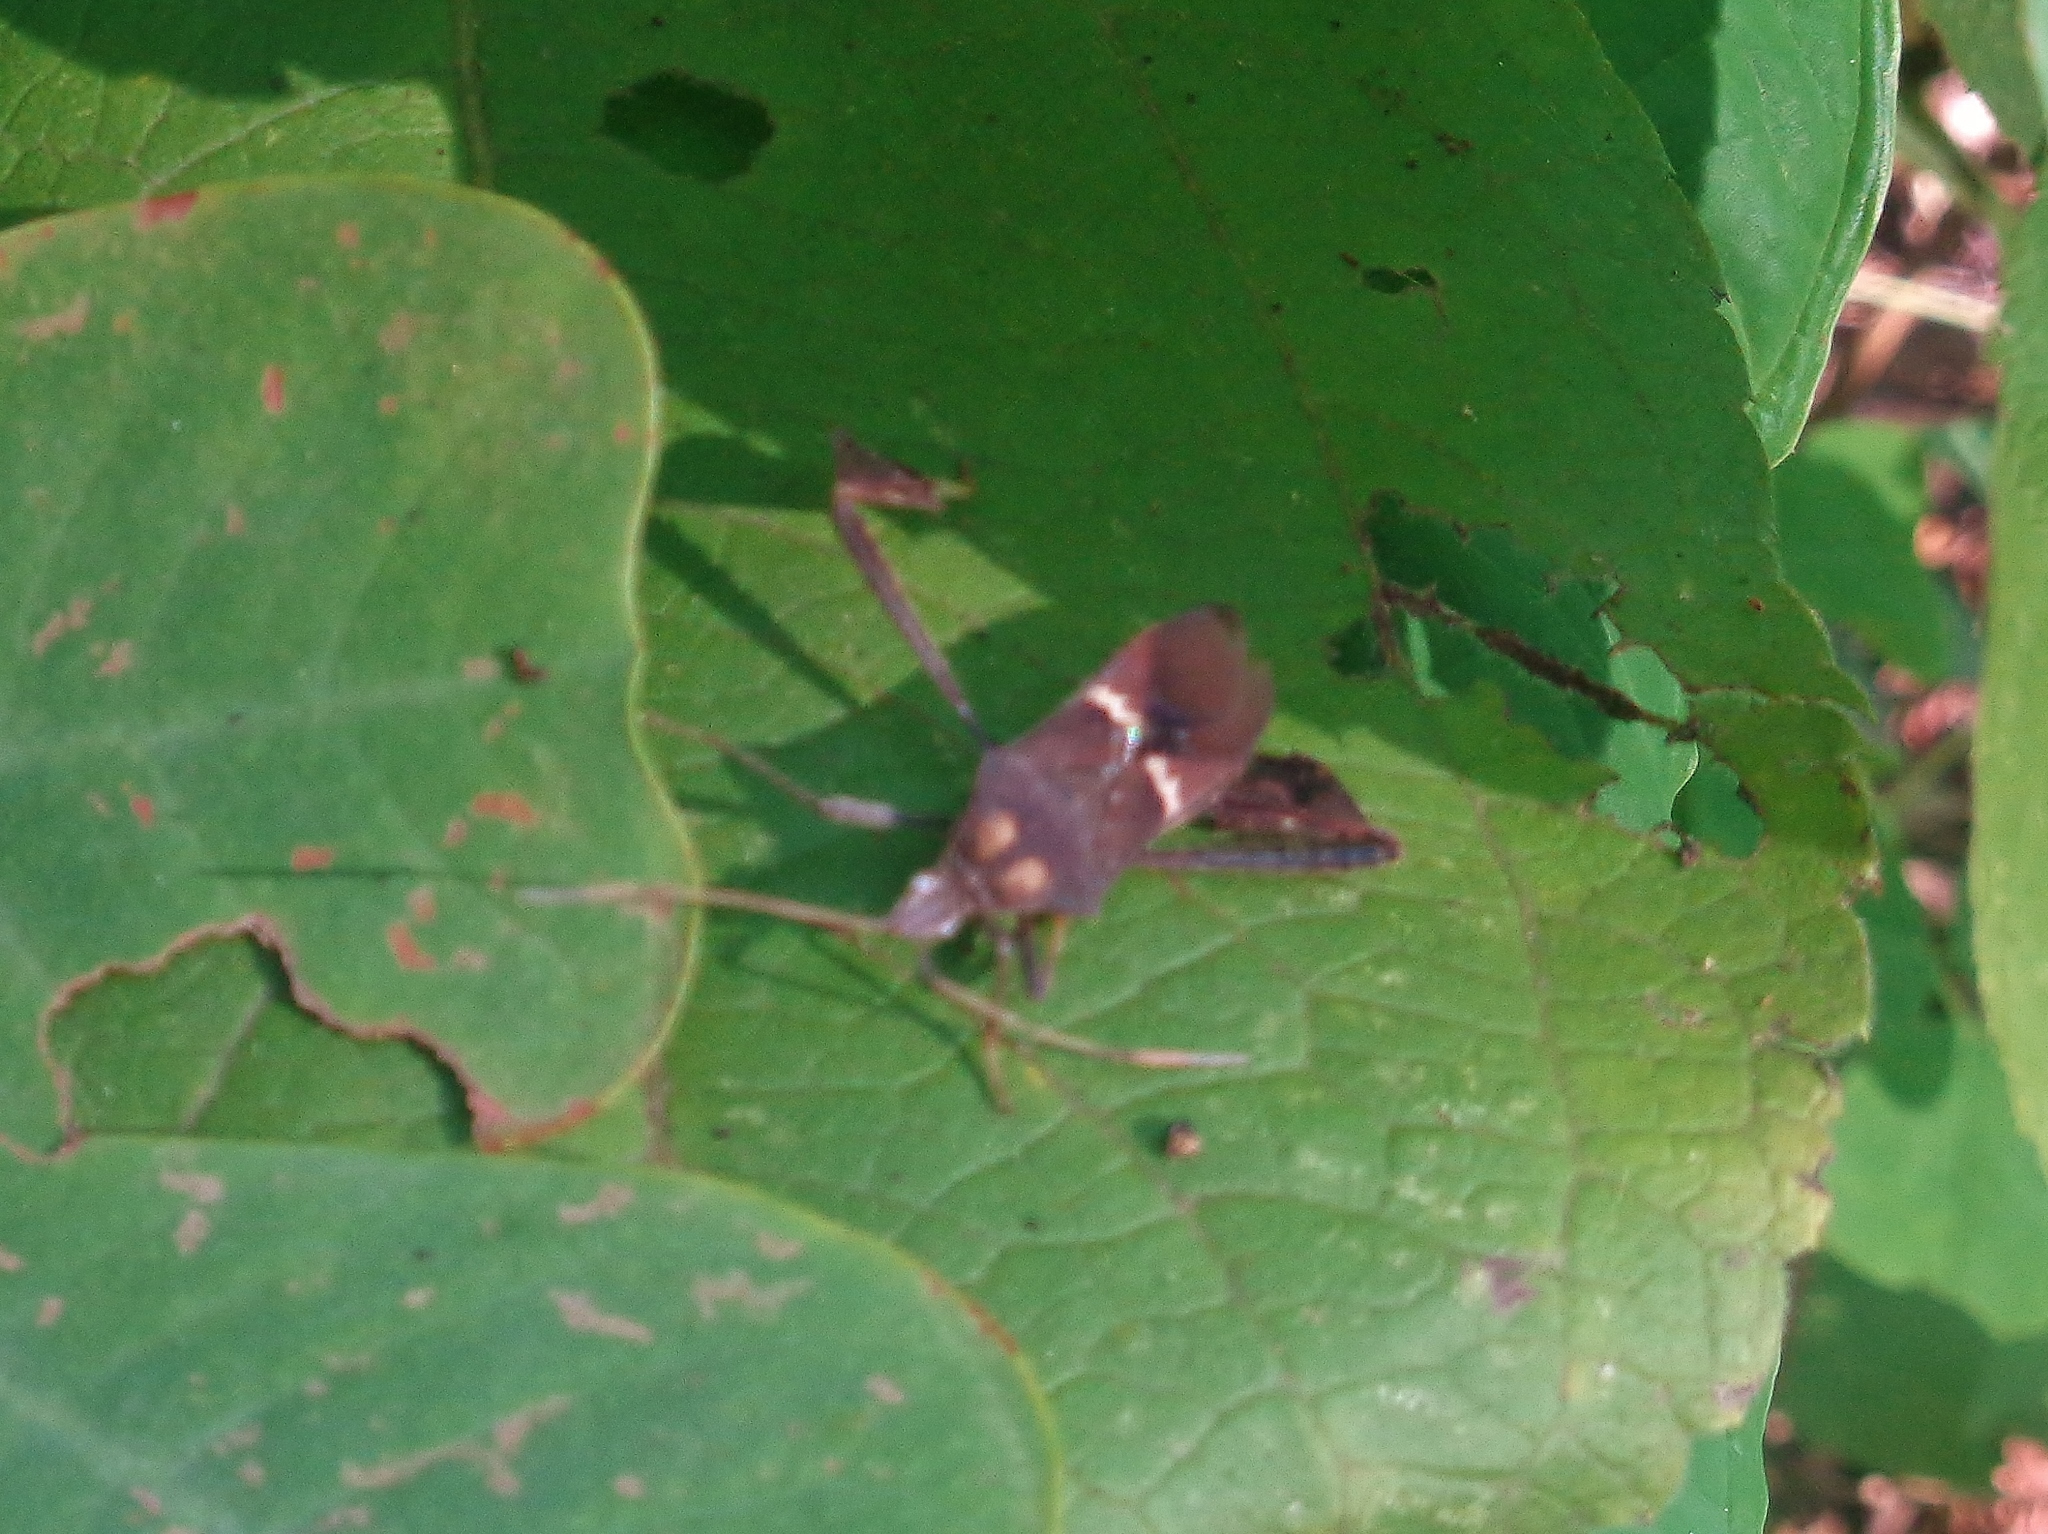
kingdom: Animalia
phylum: Arthropoda
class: Insecta
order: Hemiptera
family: Coreidae
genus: Leptoglossus
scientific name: Leptoglossus zonatus
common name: Large-legged bug
